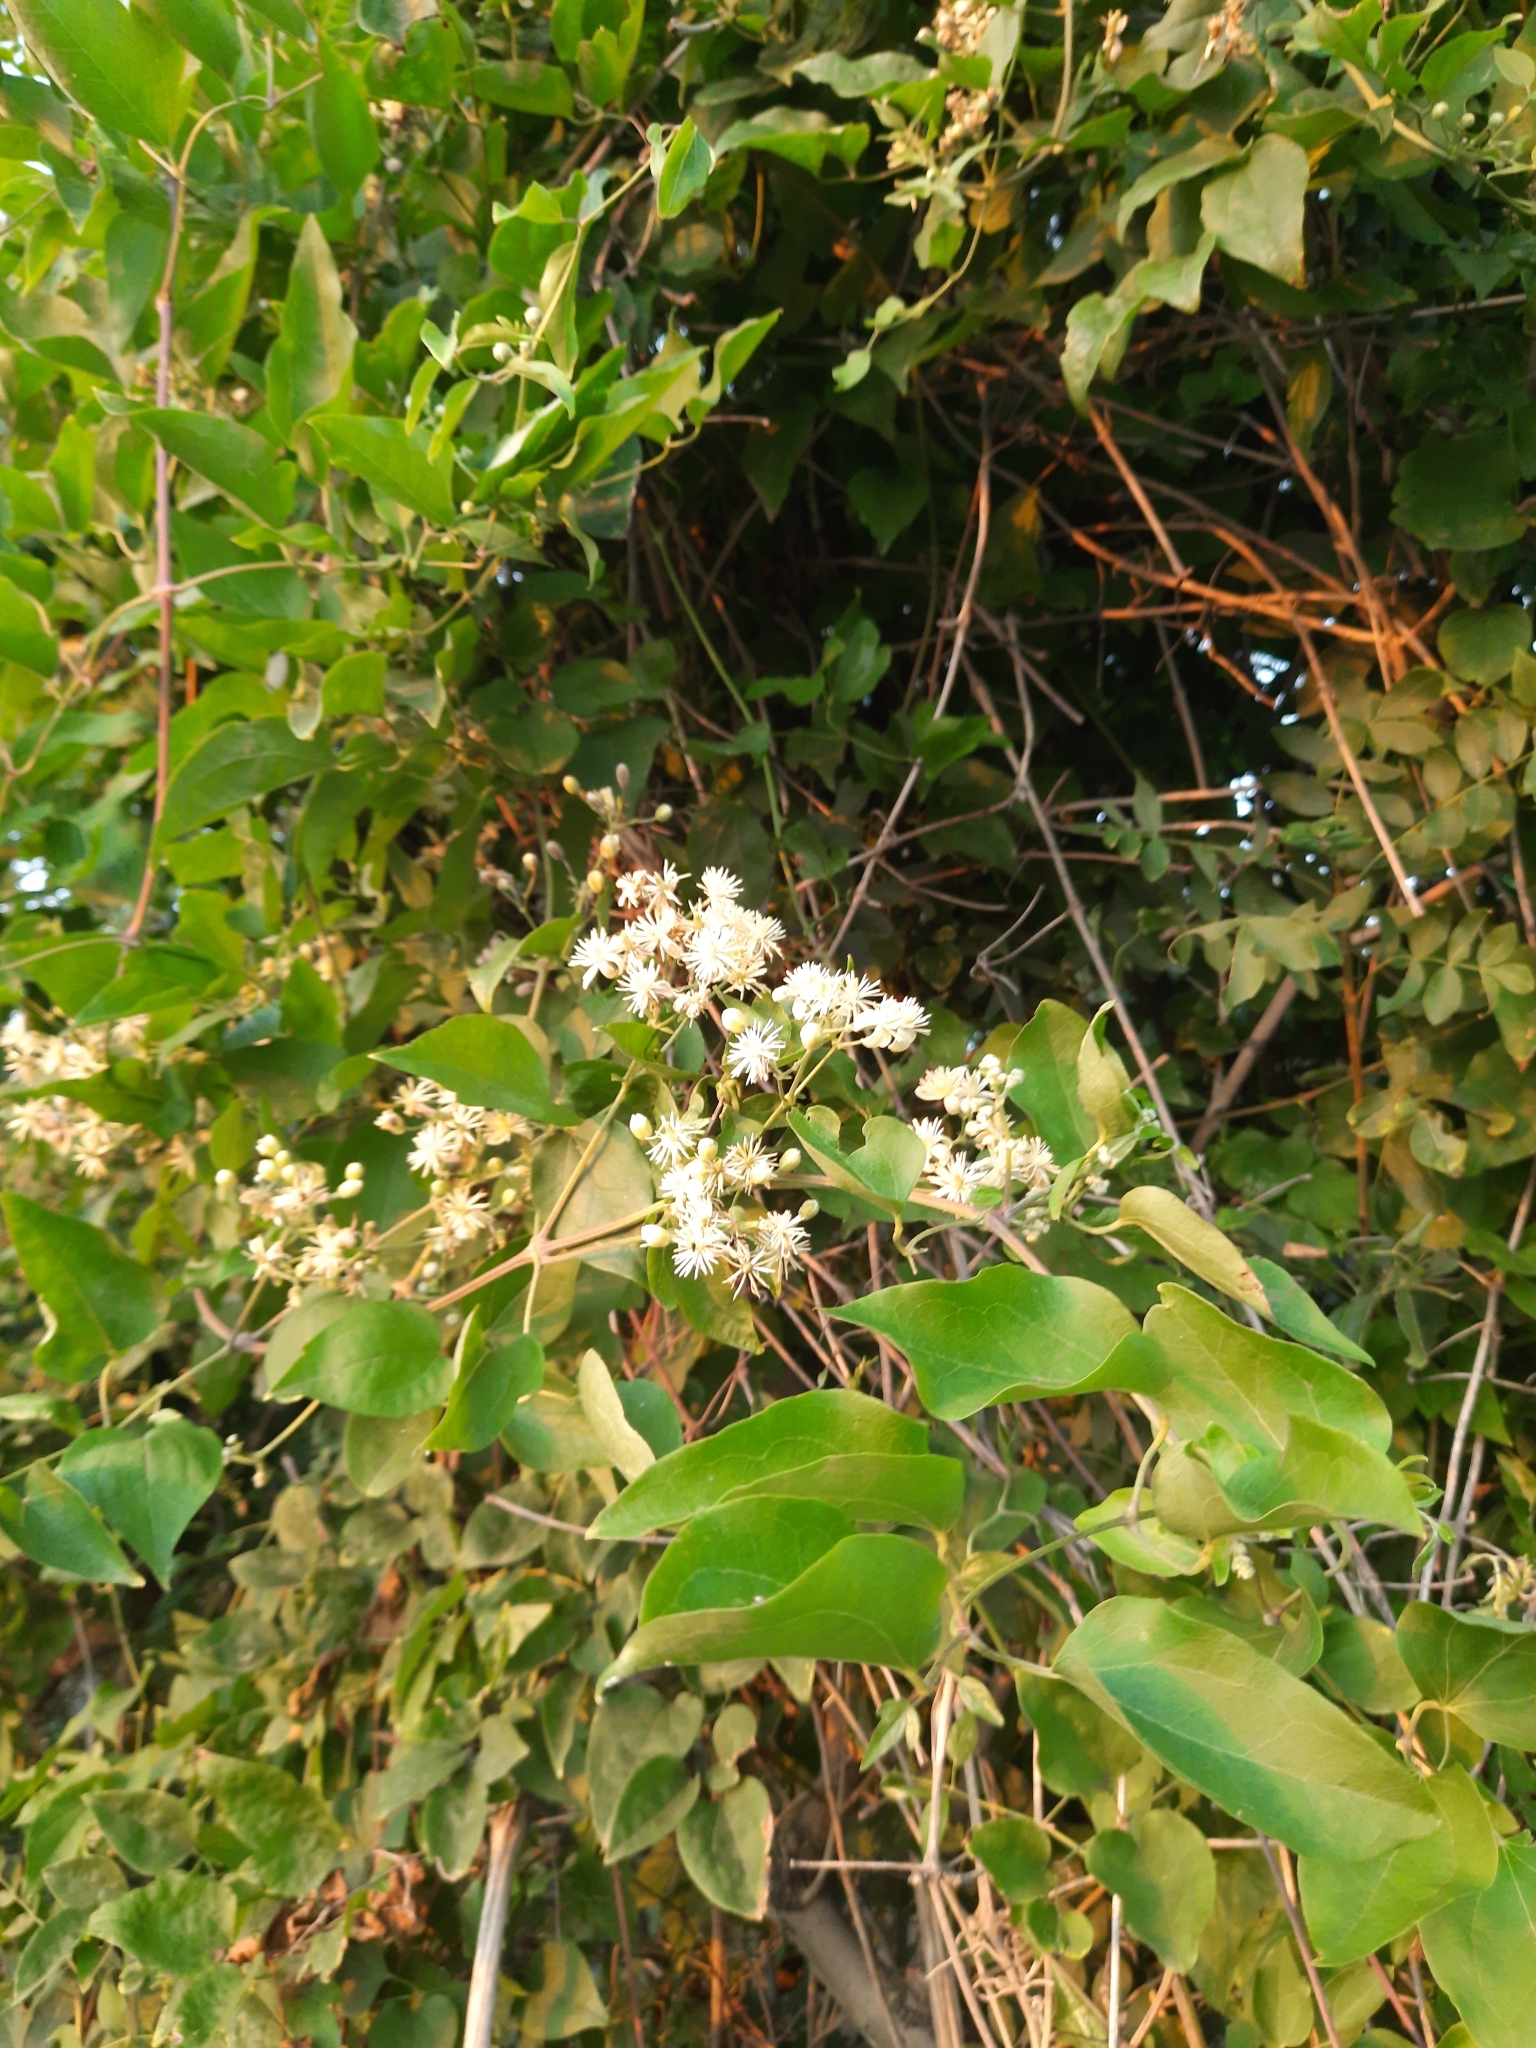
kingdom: Plantae
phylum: Tracheophyta
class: Magnoliopsida
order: Ranunculales
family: Ranunculaceae
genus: Clematis
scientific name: Clematis vitalba
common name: Evergreen clematis
